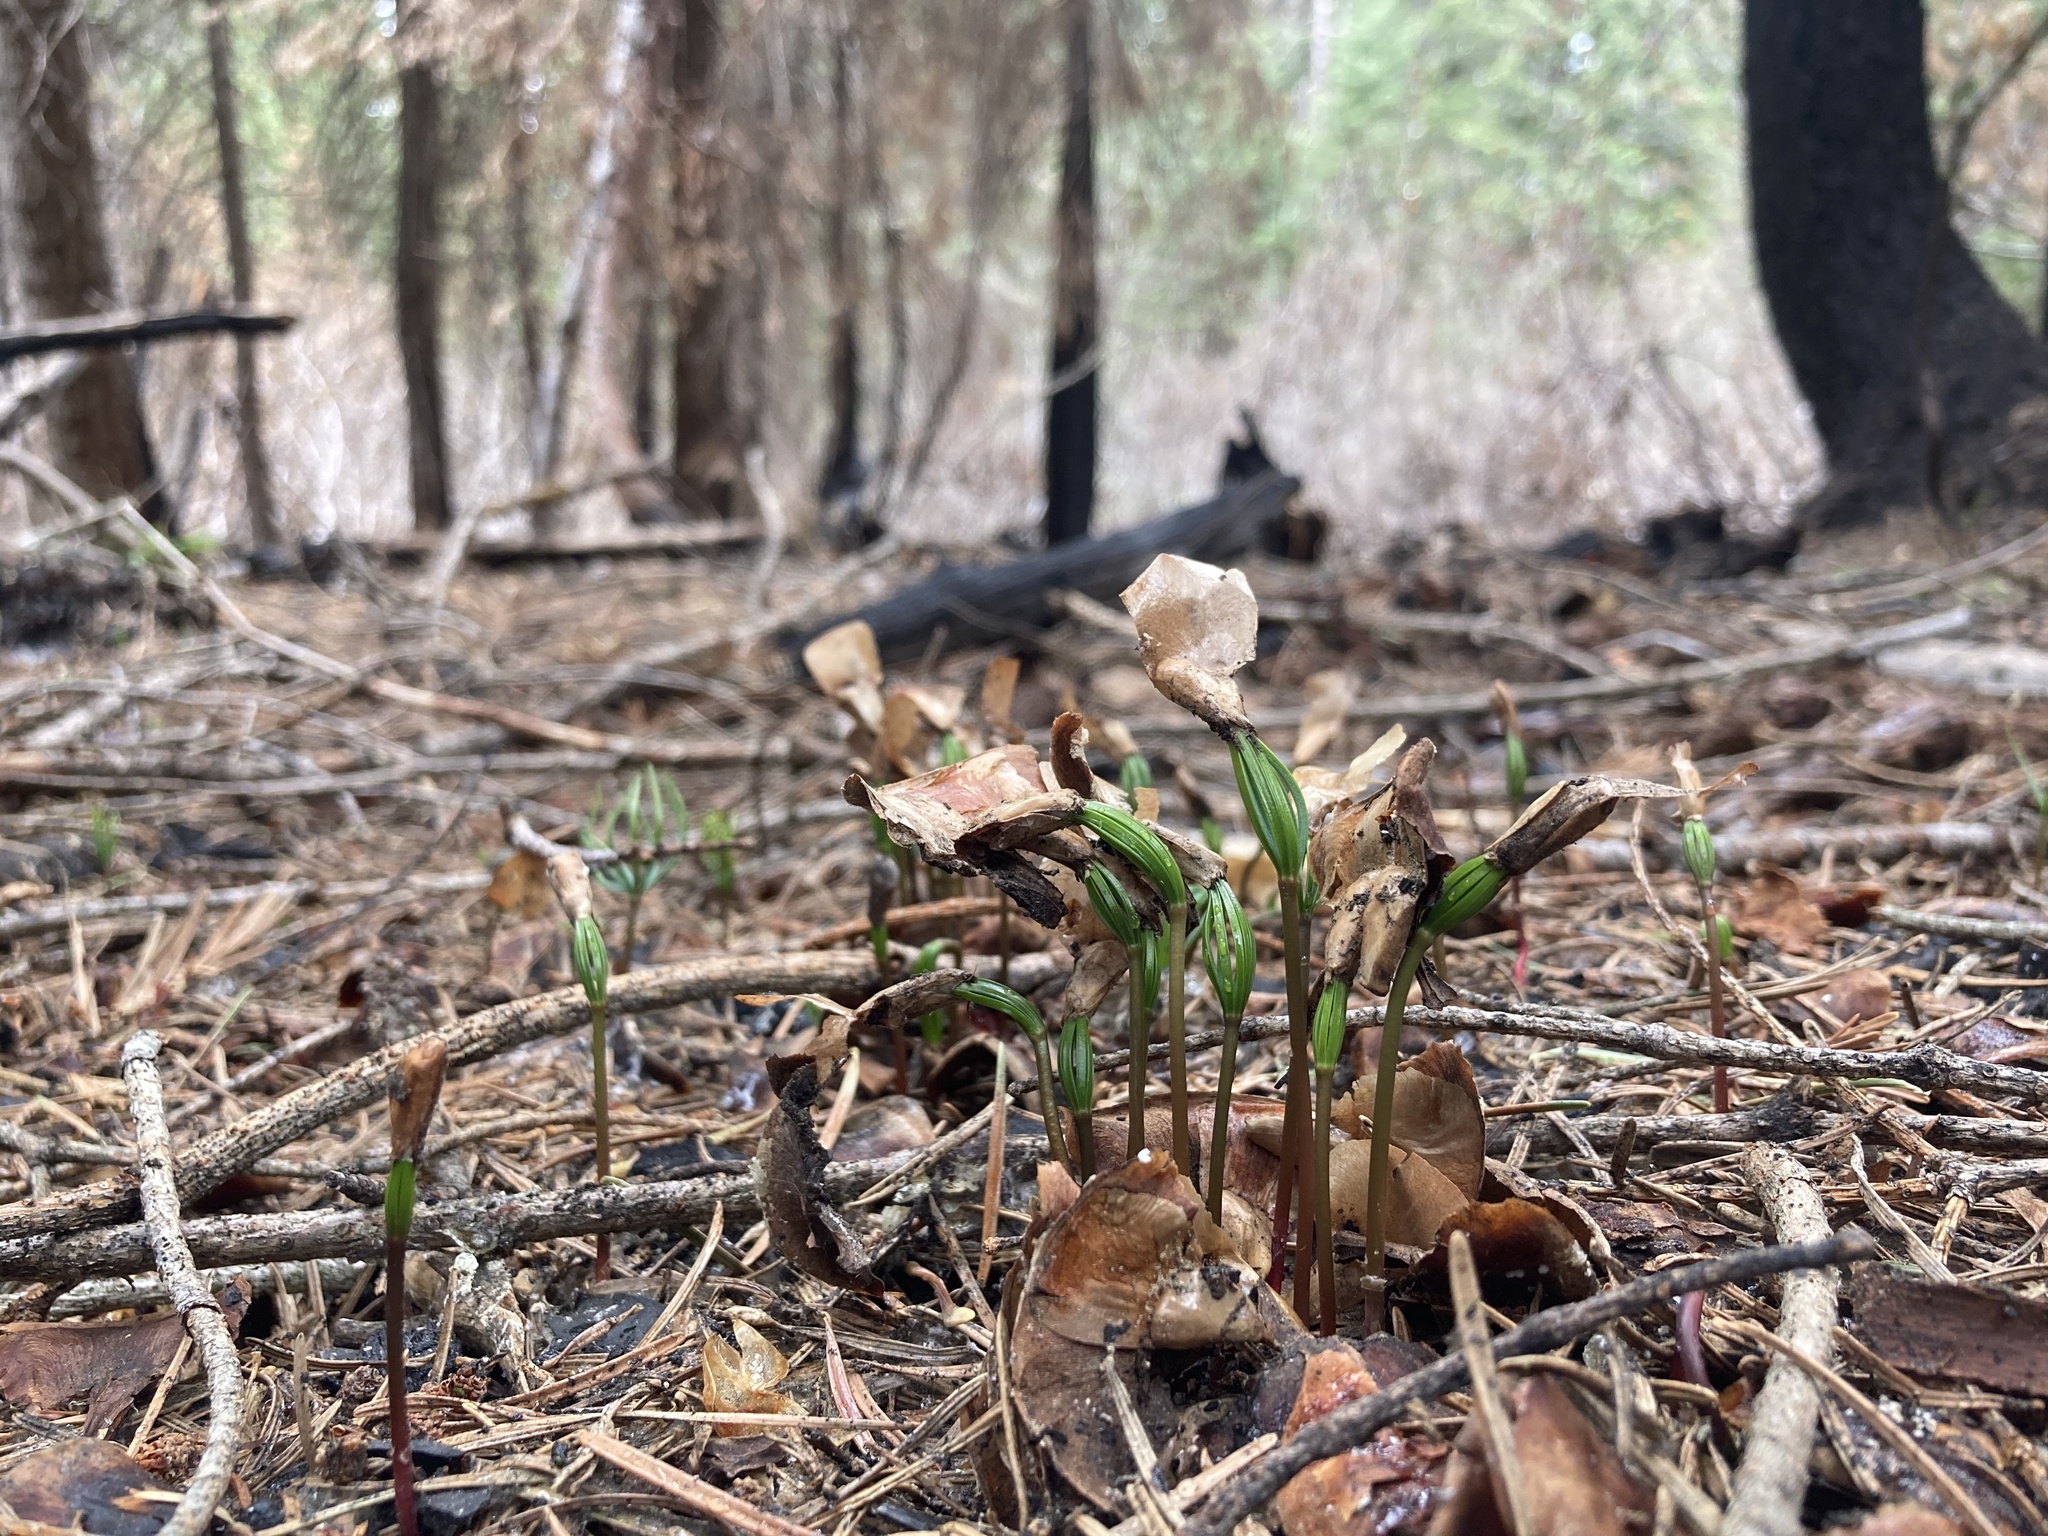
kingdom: Plantae
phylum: Tracheophyta
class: Pinopsida
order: Pinales
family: Pinaceae
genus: Abies
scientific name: Abies concolor
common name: Colorado fir
